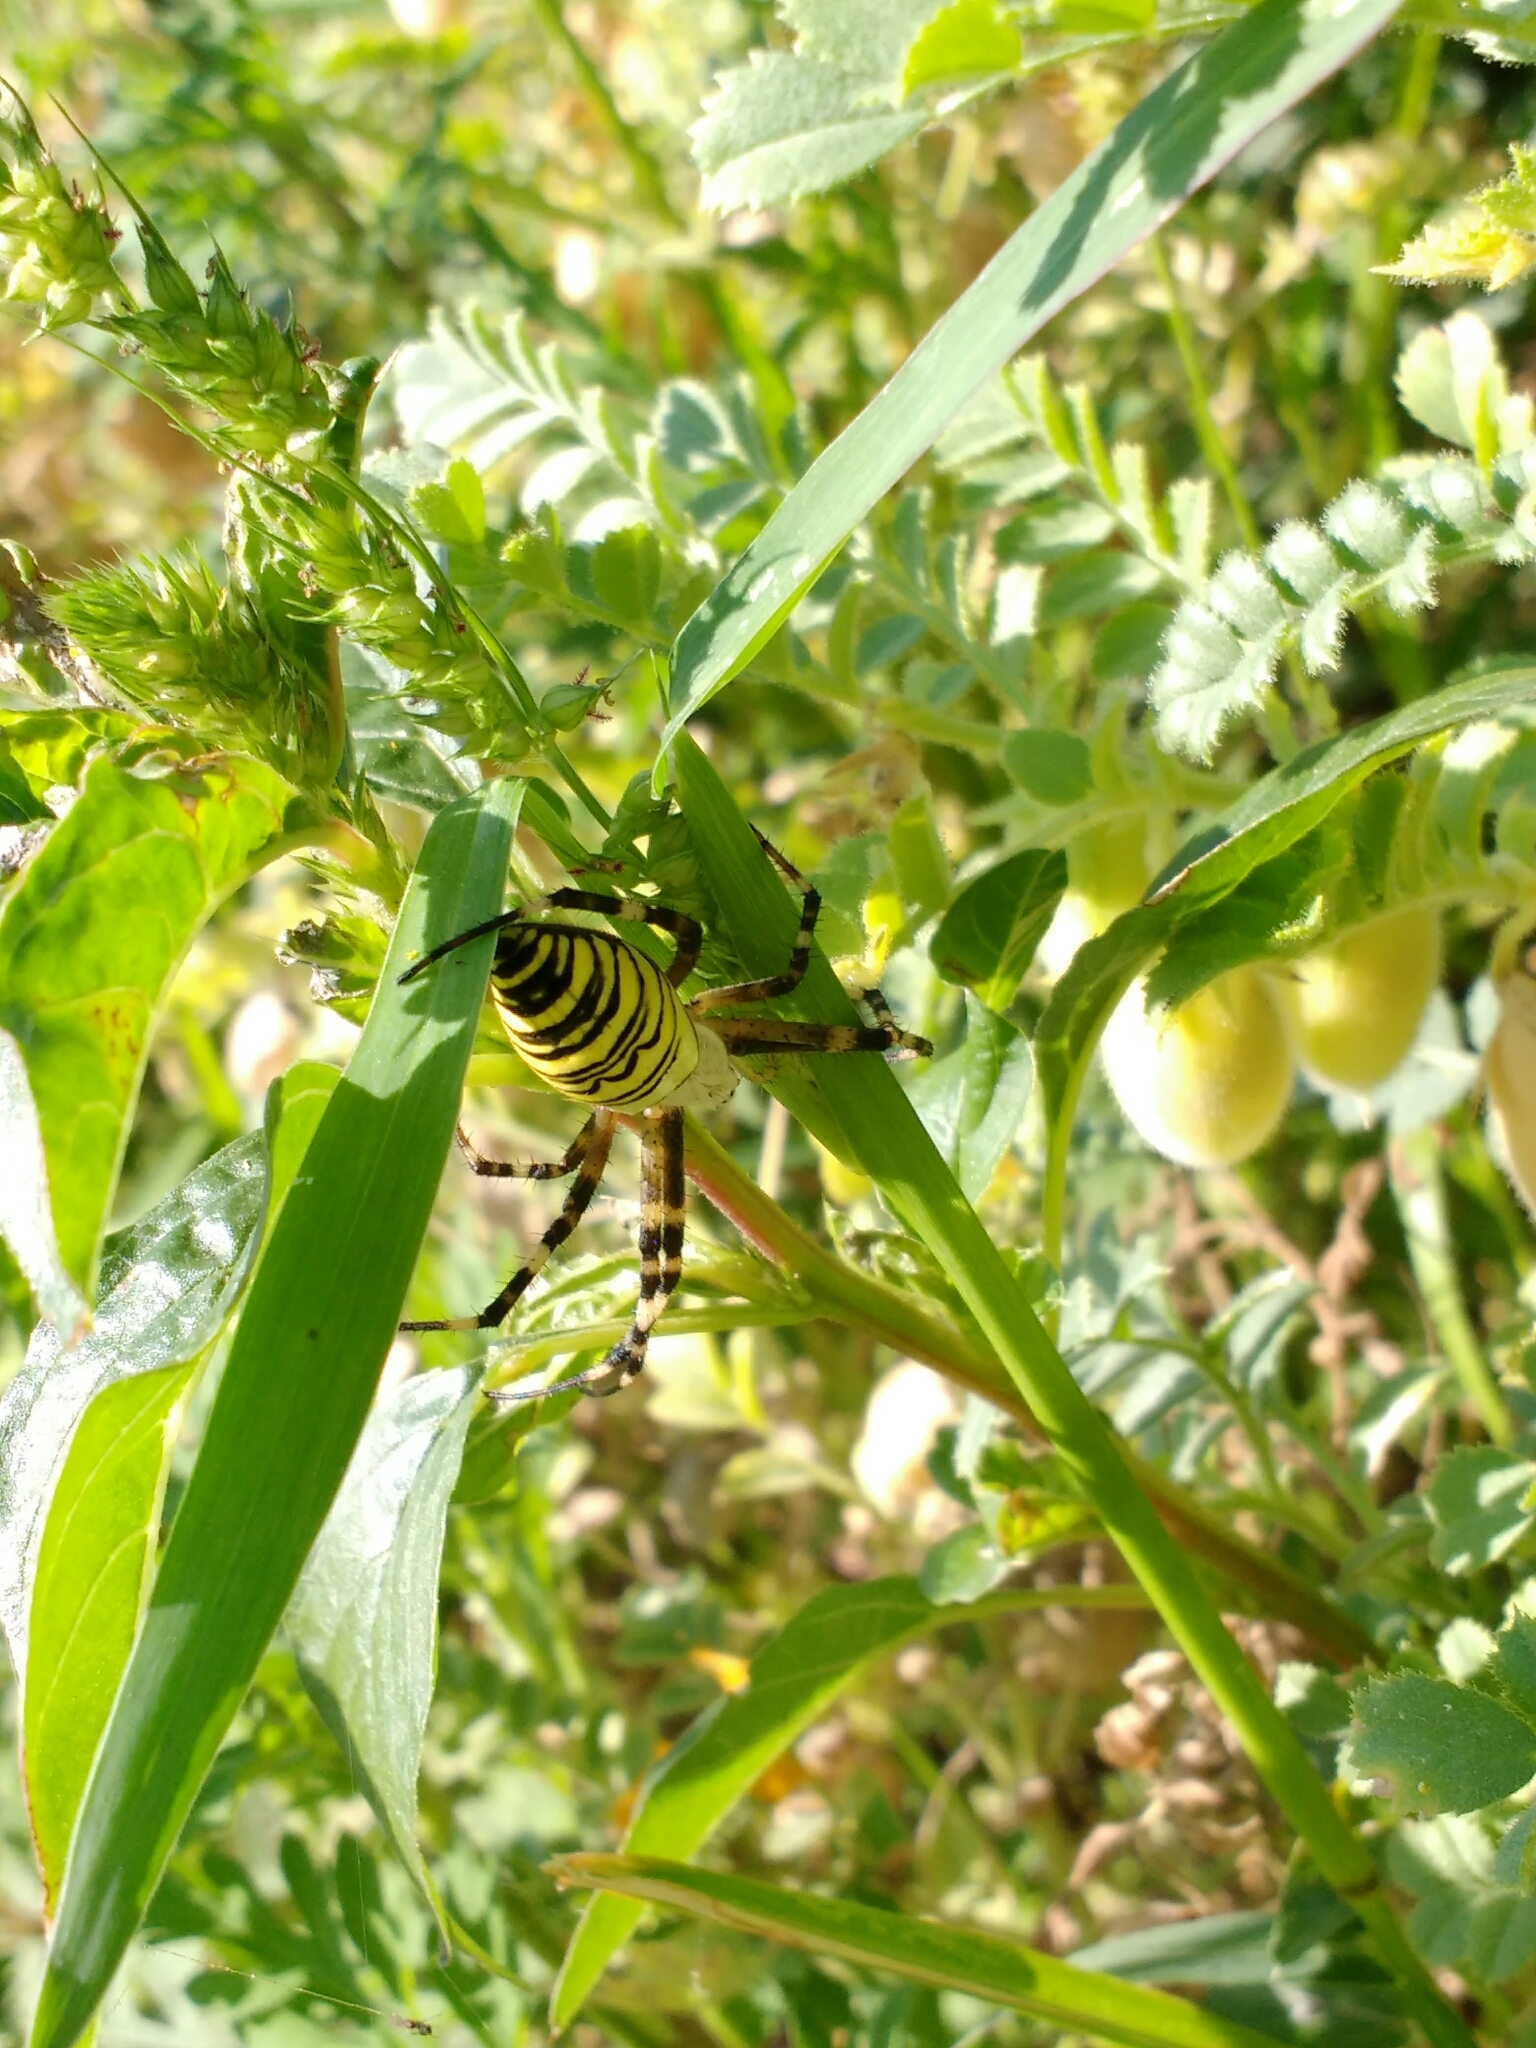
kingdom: Animalia
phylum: Arthropoda
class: Arachnida
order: Araneae
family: Araneidae
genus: Argiope
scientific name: Argiope bruennichi
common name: Wasp spider
